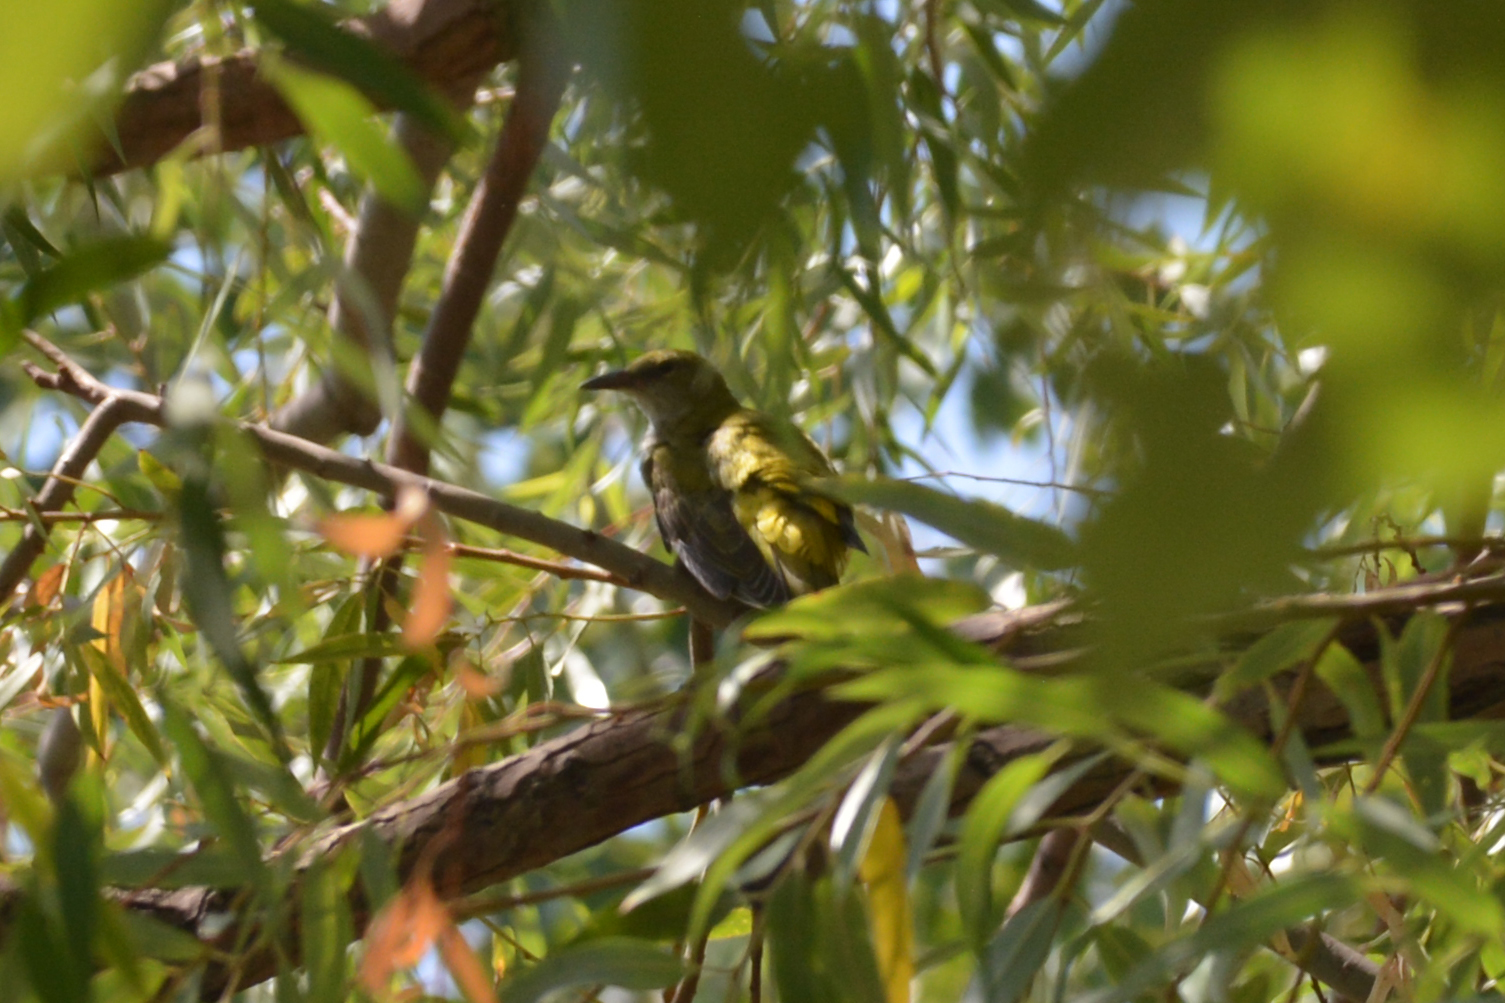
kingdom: Animalia
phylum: Chordata
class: Aves
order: Passeriformes
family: Oriolidae
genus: Oriolus
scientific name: Oriolus oriolus
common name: Eurasian golden oriole
